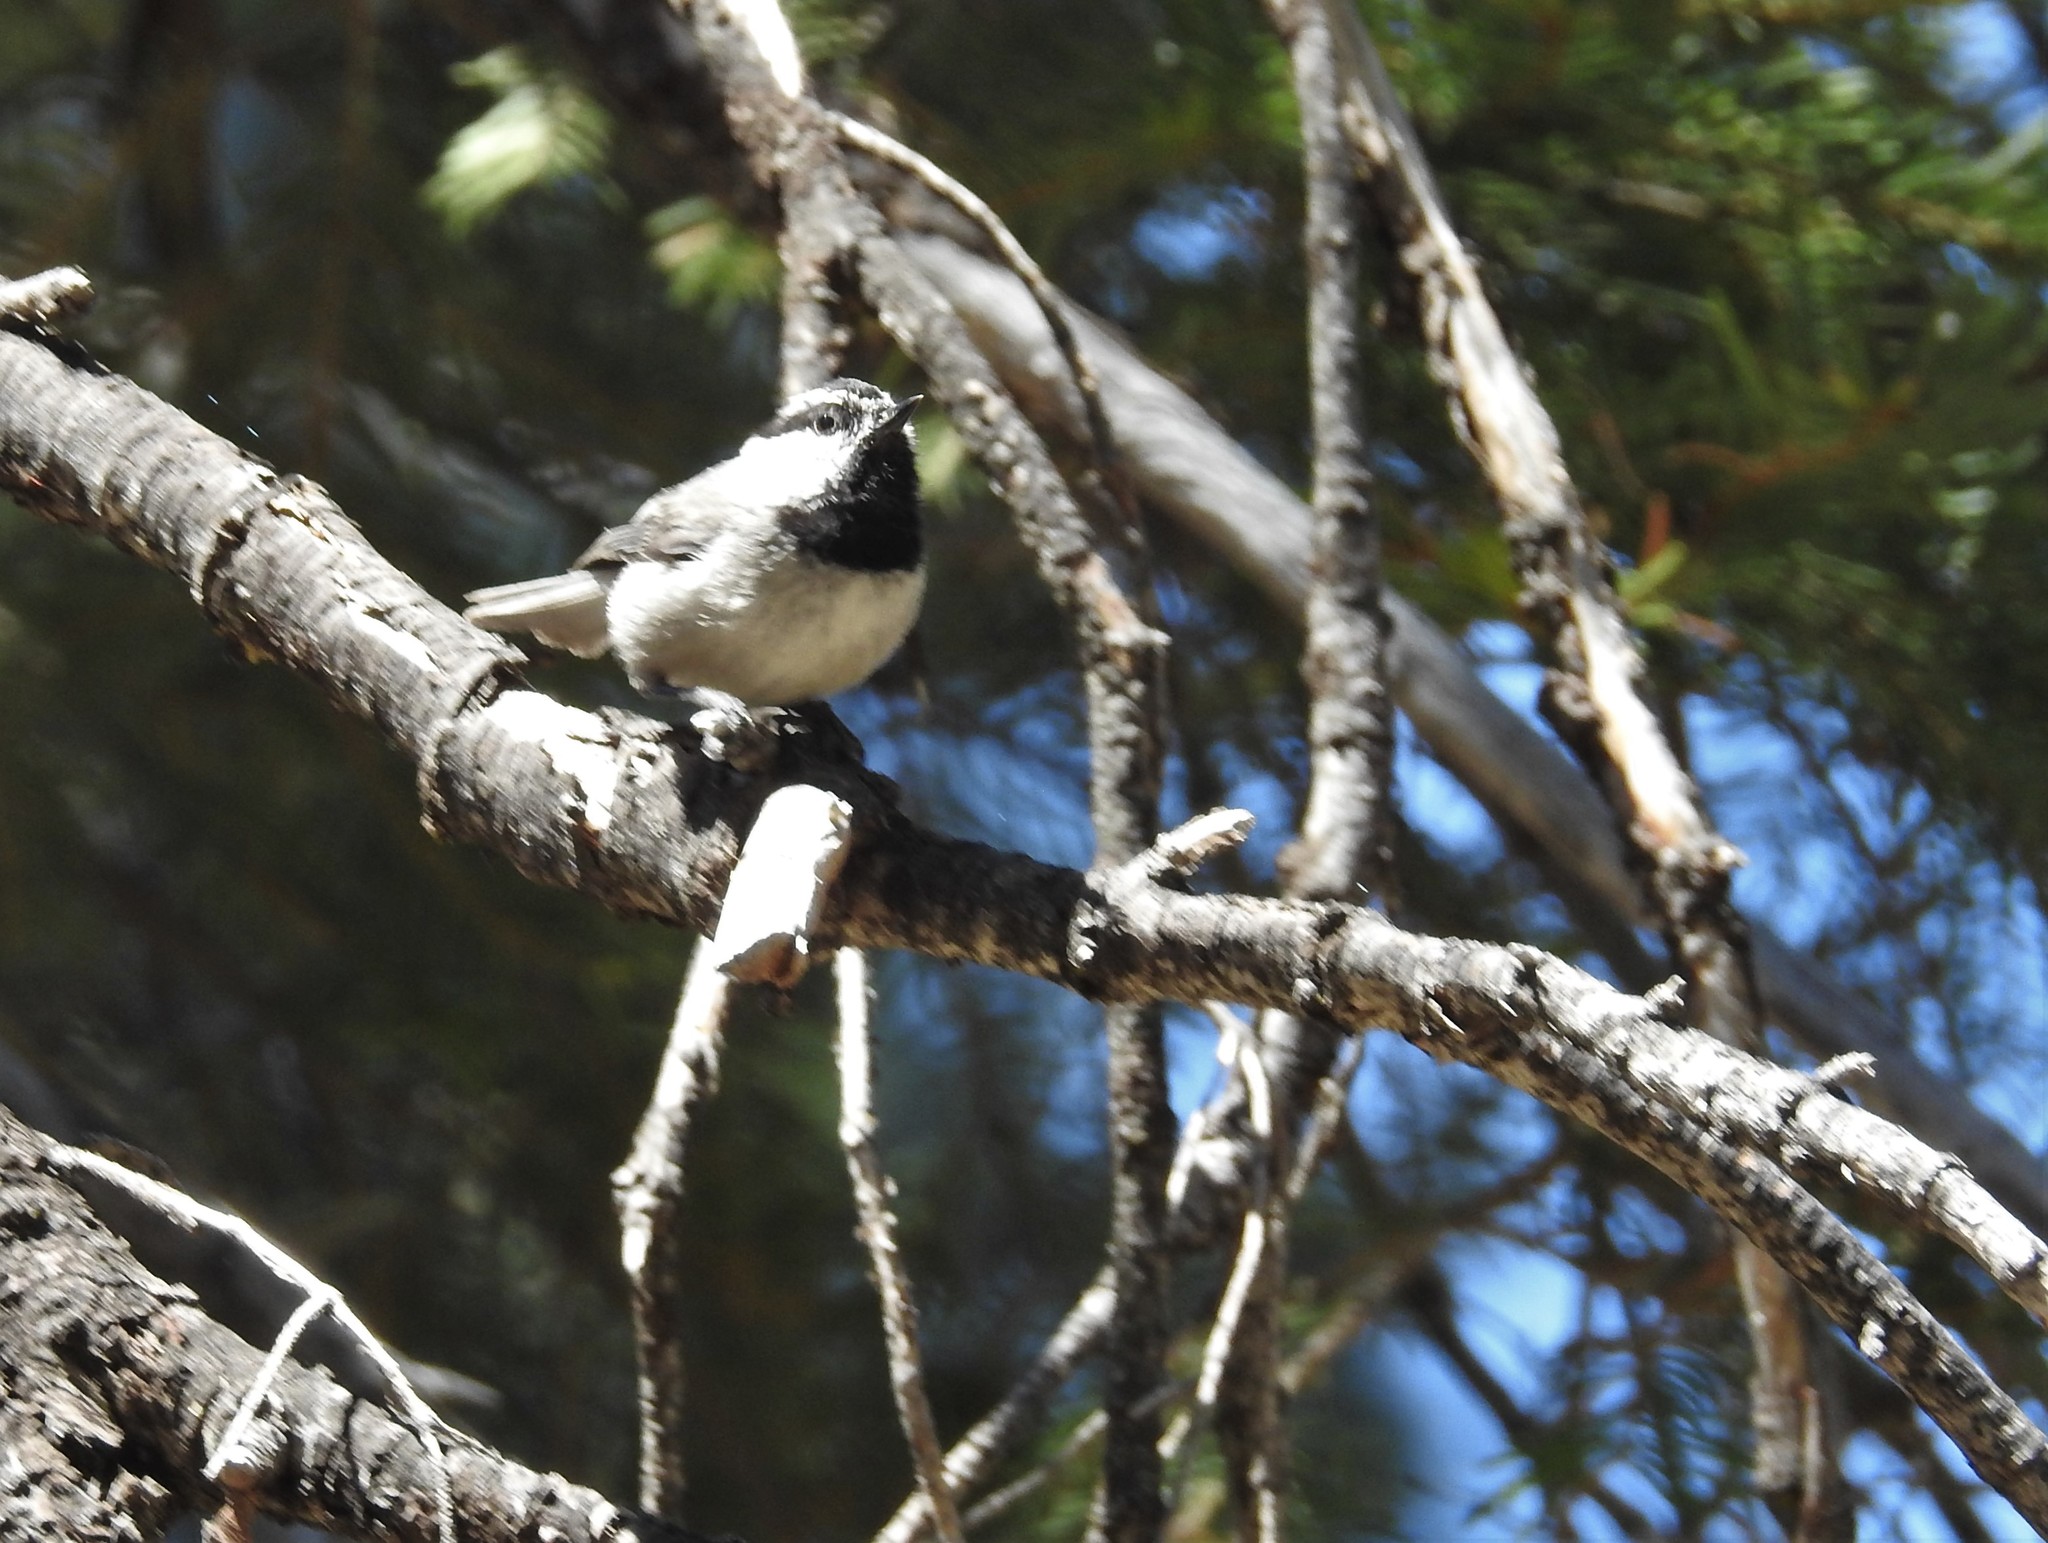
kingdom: Animalia
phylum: Chordata
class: Aves
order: Passeriformes
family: Paridae
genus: Poecile
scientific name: Poecile gambeli
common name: Mountain chickadee
